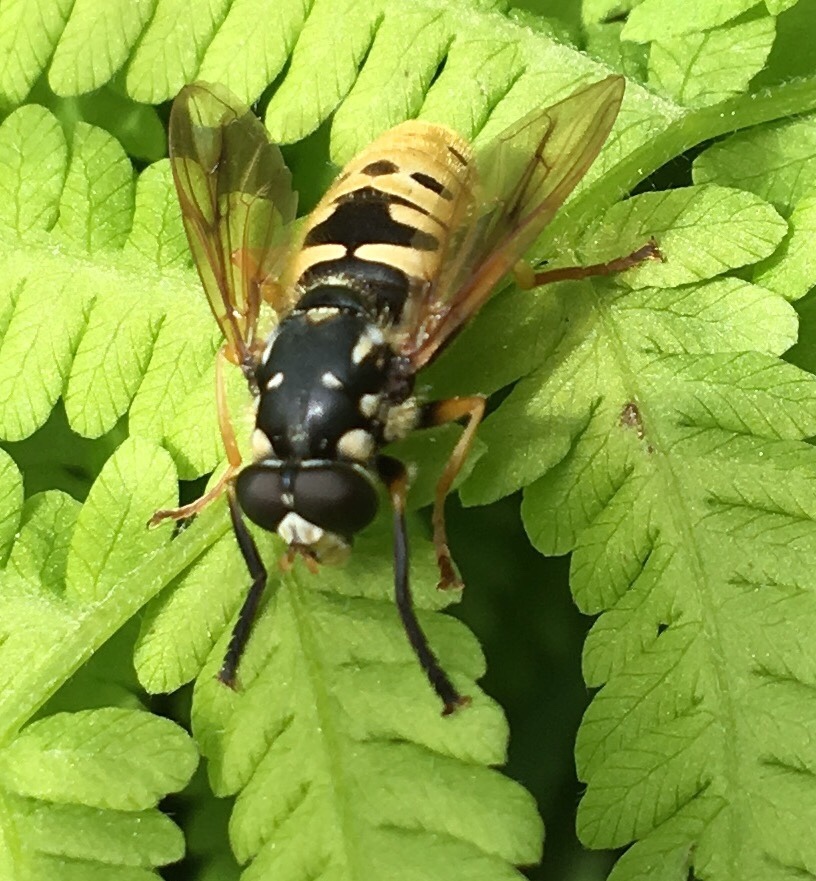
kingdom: Animalia
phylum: Arthropoda
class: Insecta
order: Diptera
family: Syrphidae
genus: Temnostoma
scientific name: Temnostoma alternans
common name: Wasp-like falsehorn
